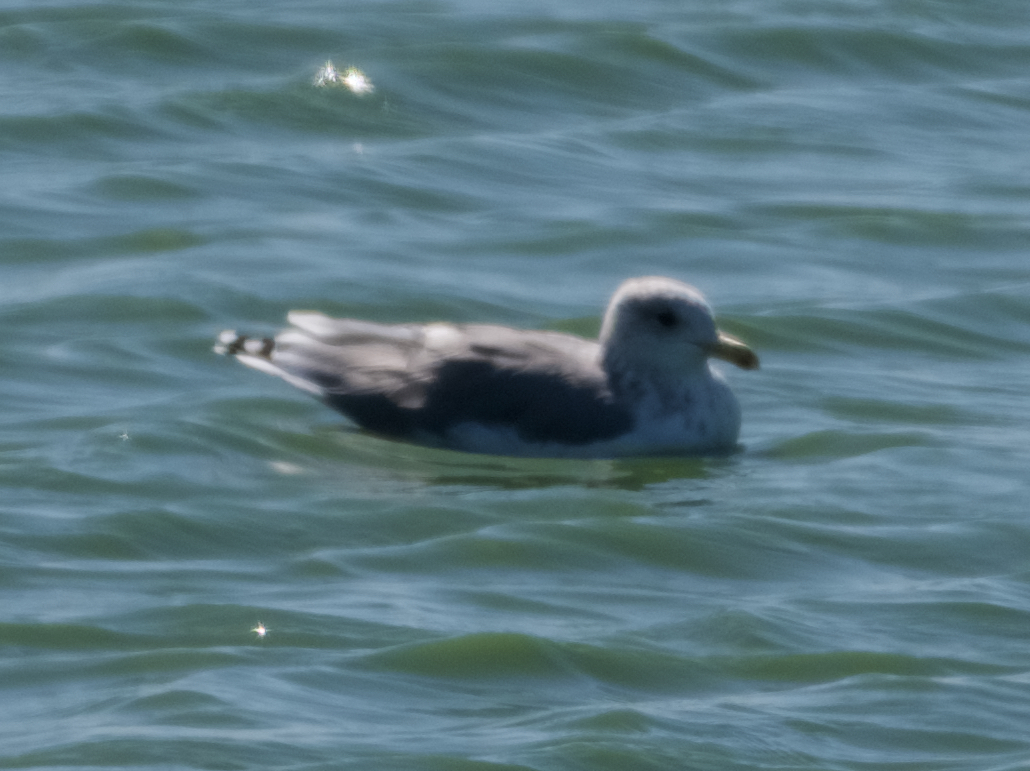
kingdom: Animalia
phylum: Chordata
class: Aves
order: Charadriiformes
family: Laridae
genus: Larus
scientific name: Larus californicus
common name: California gull
